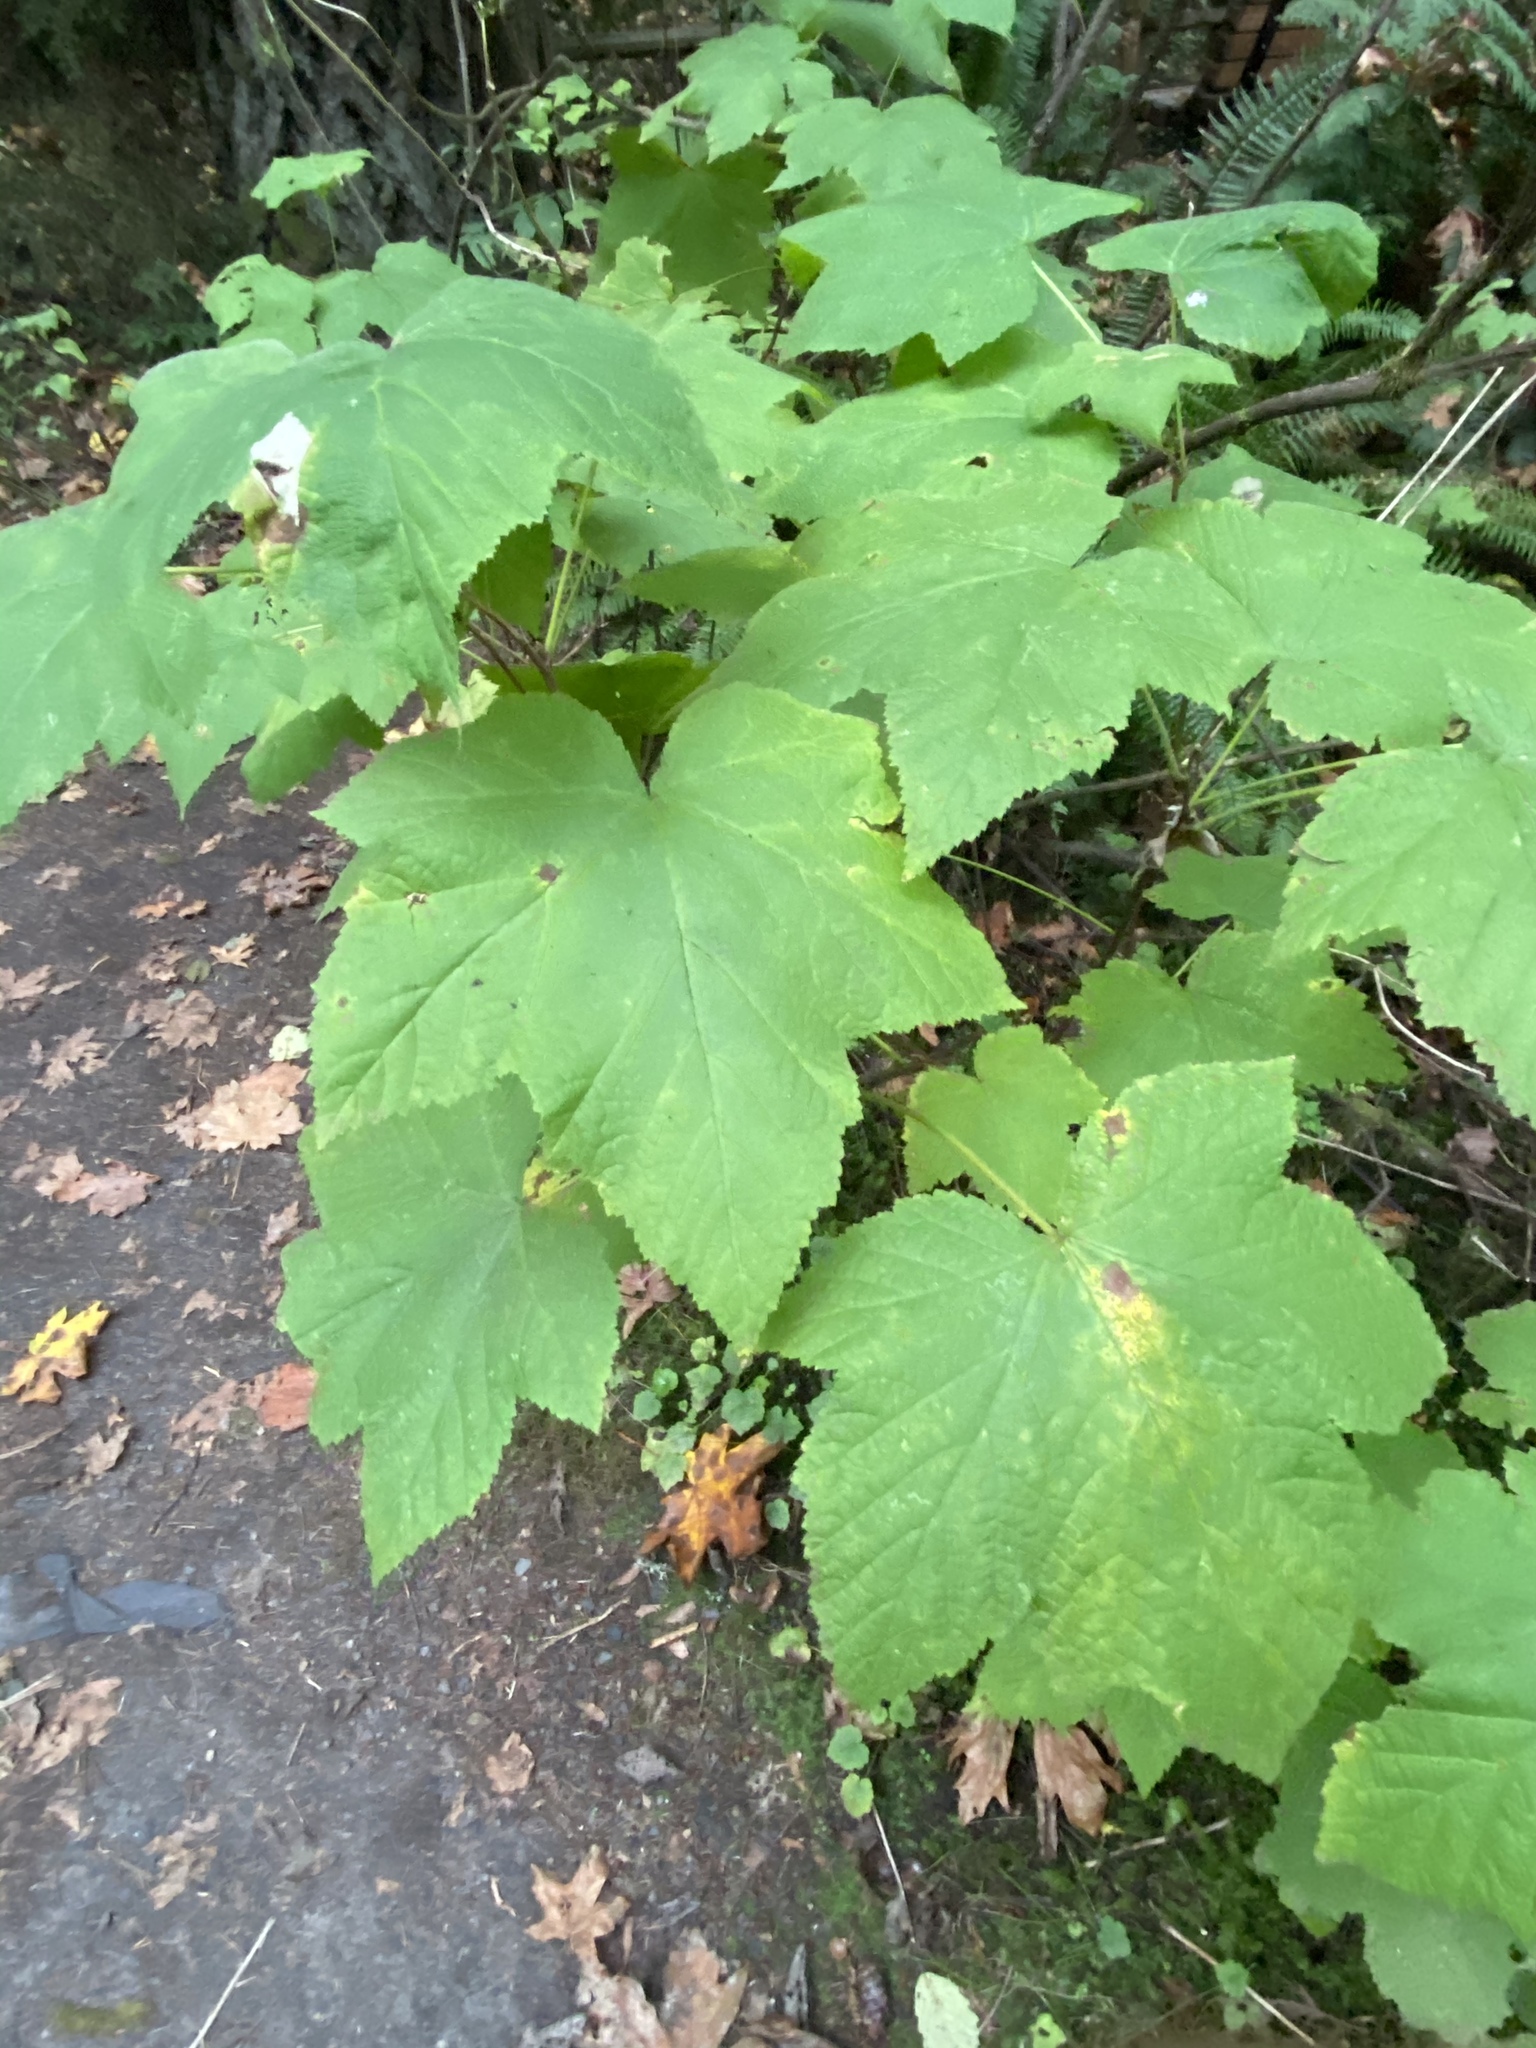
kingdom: Plantae
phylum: Tracheophyta
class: Magnoliopsida
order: Rosales
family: Rosaceae
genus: Rubus
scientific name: Rubus parviflorus
